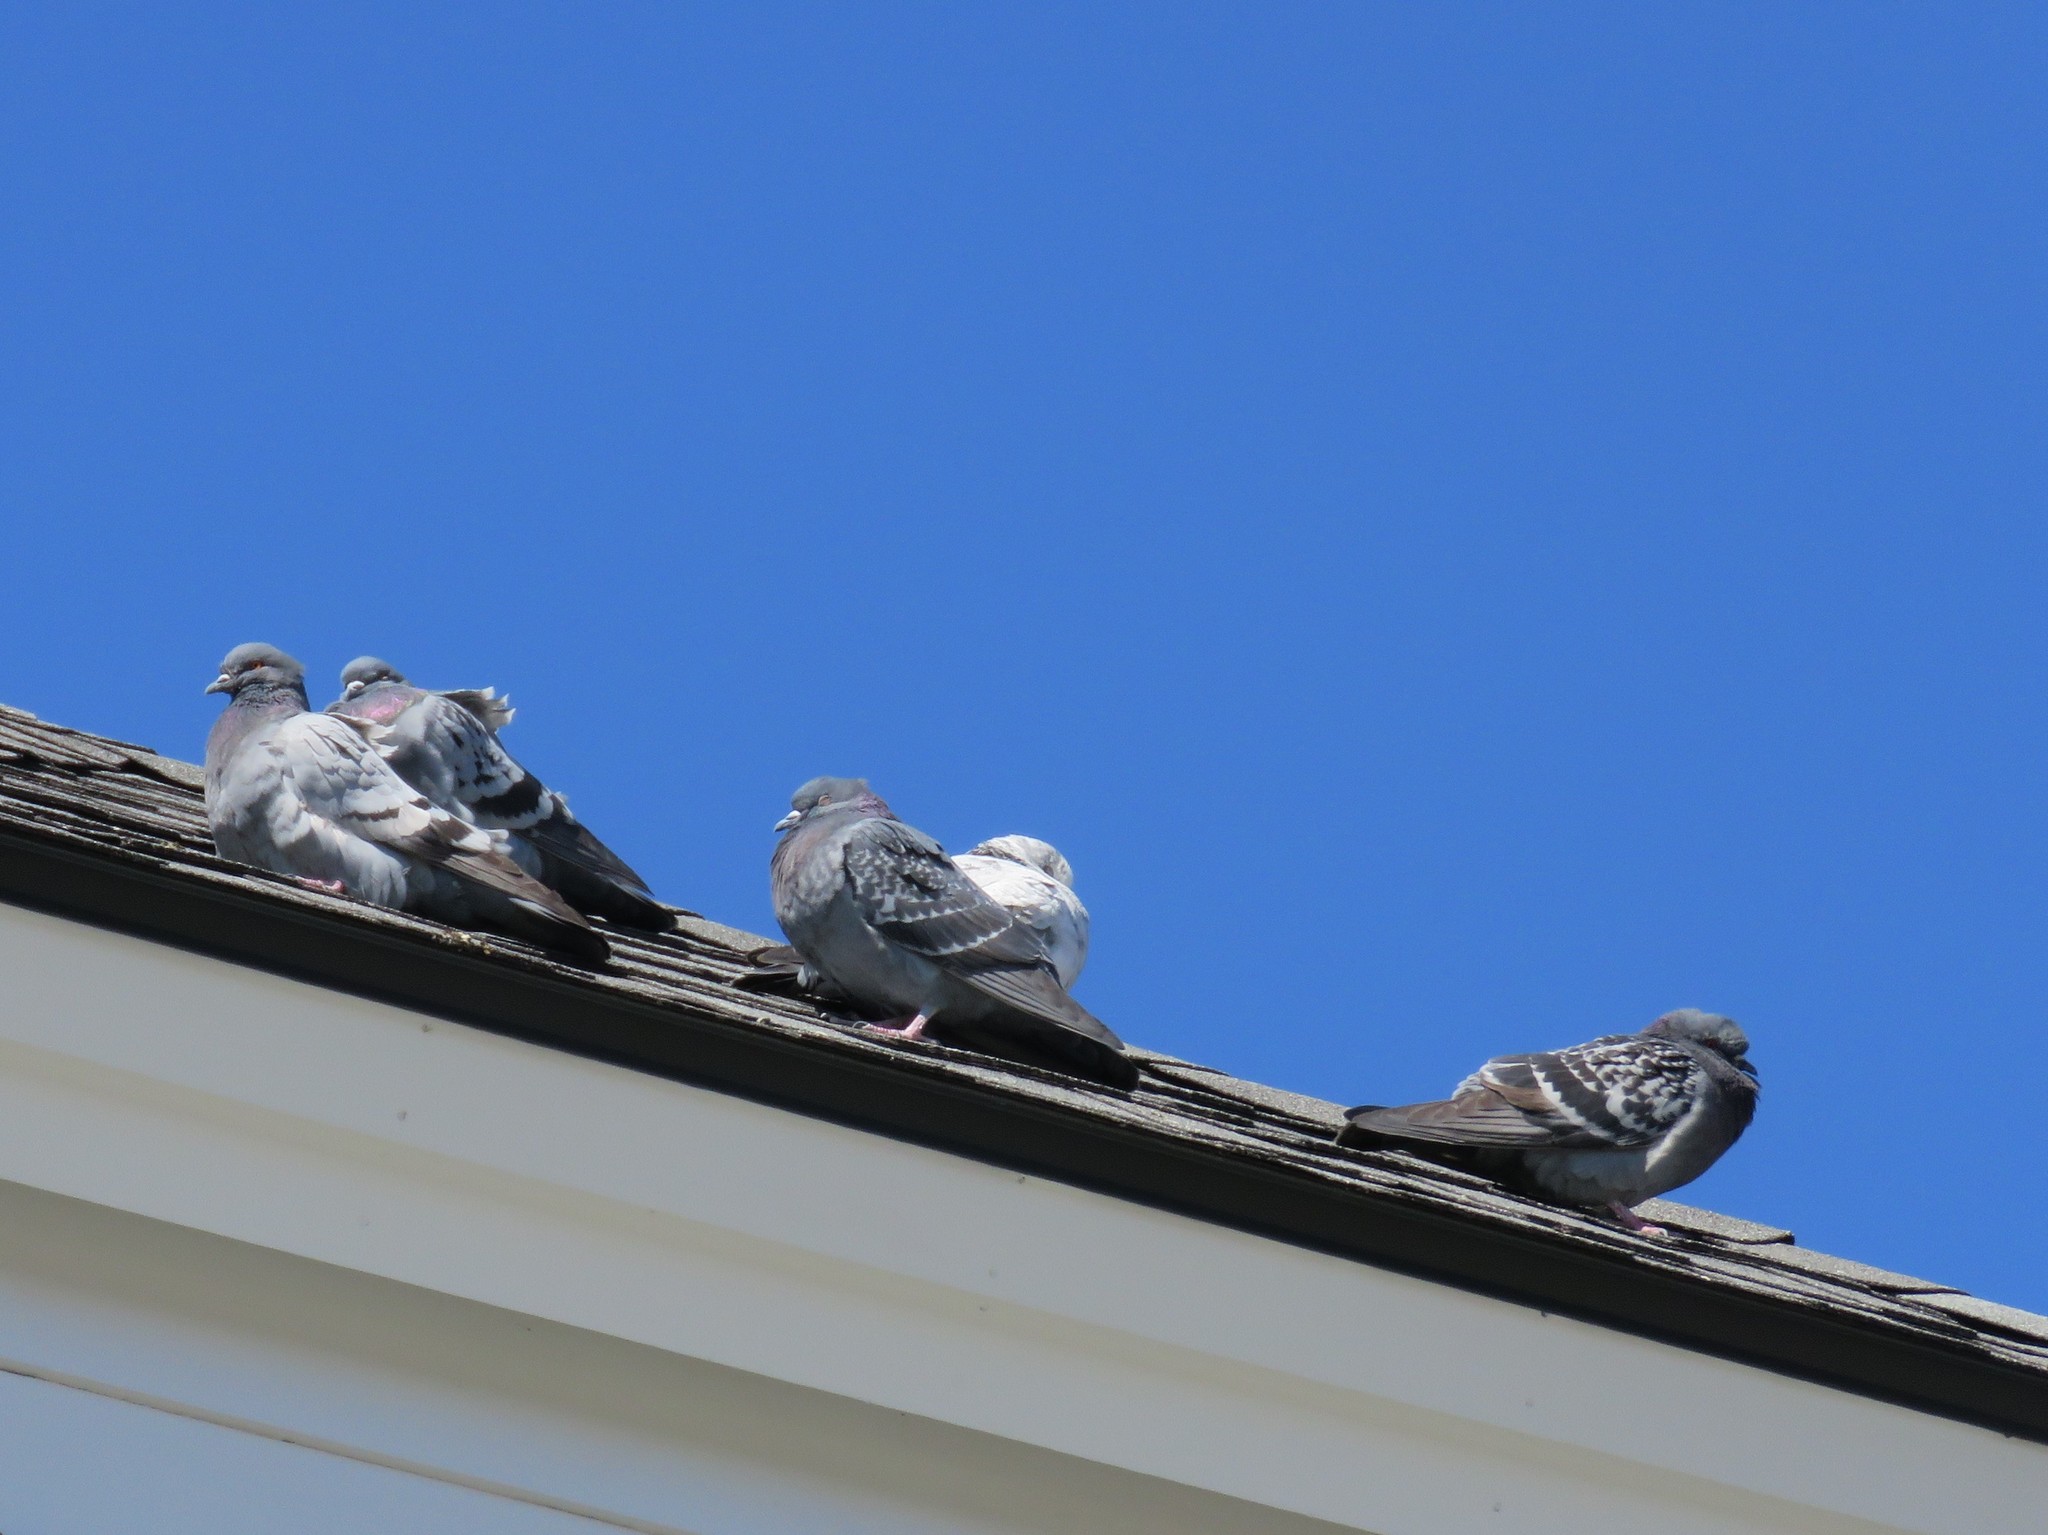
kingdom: Animalia
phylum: Chordata
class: Aves
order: Columbiformes
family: Columbidae
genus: Columba
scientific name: Columba livia
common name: Rock pigeon
